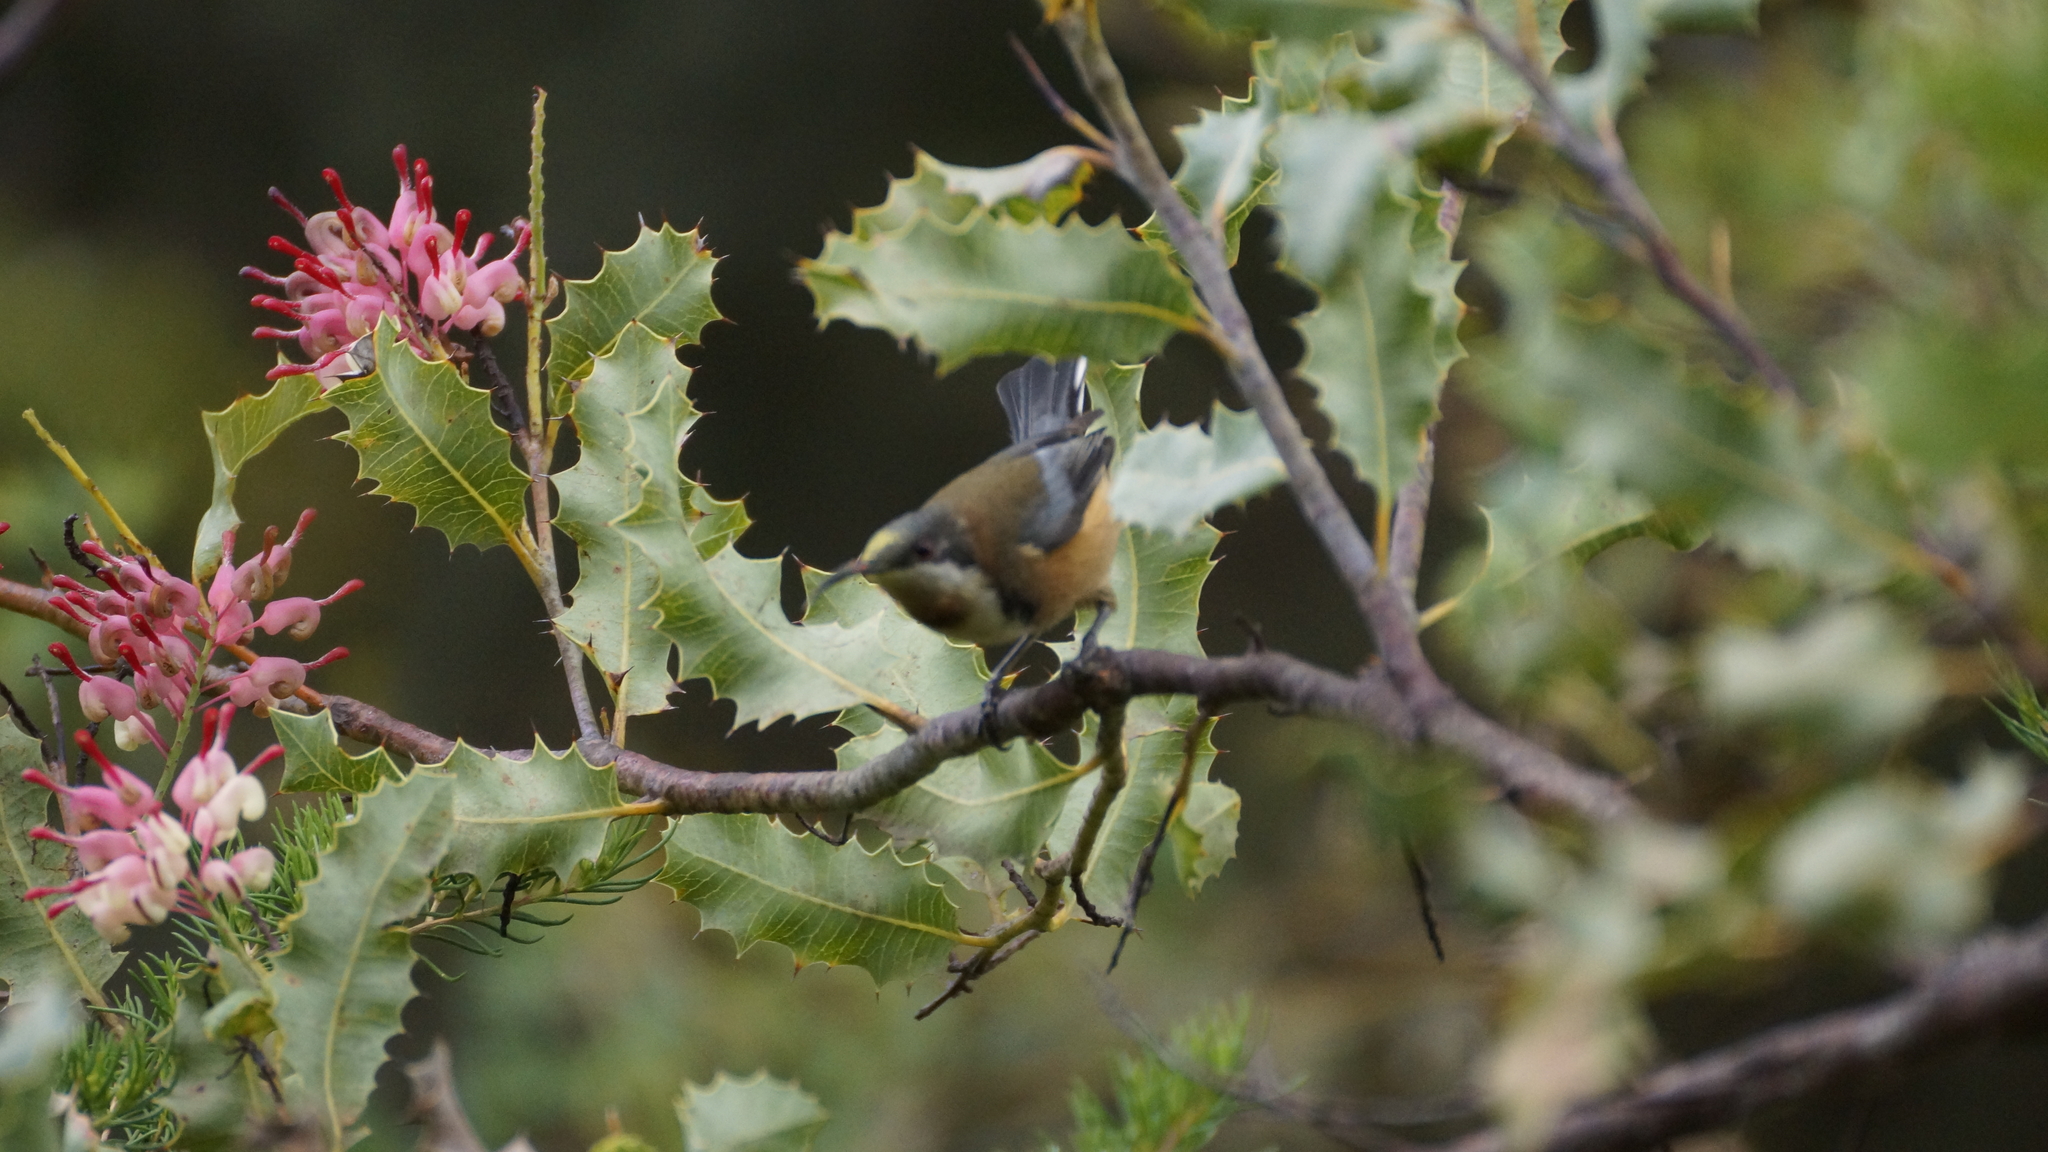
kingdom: Animalia
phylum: Chordata
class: Aves
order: Passeriformes
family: Meliphagidae
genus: Acanthorhynchus
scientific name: Acanthorhynchus tenuirostris
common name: Eastern spinebill
